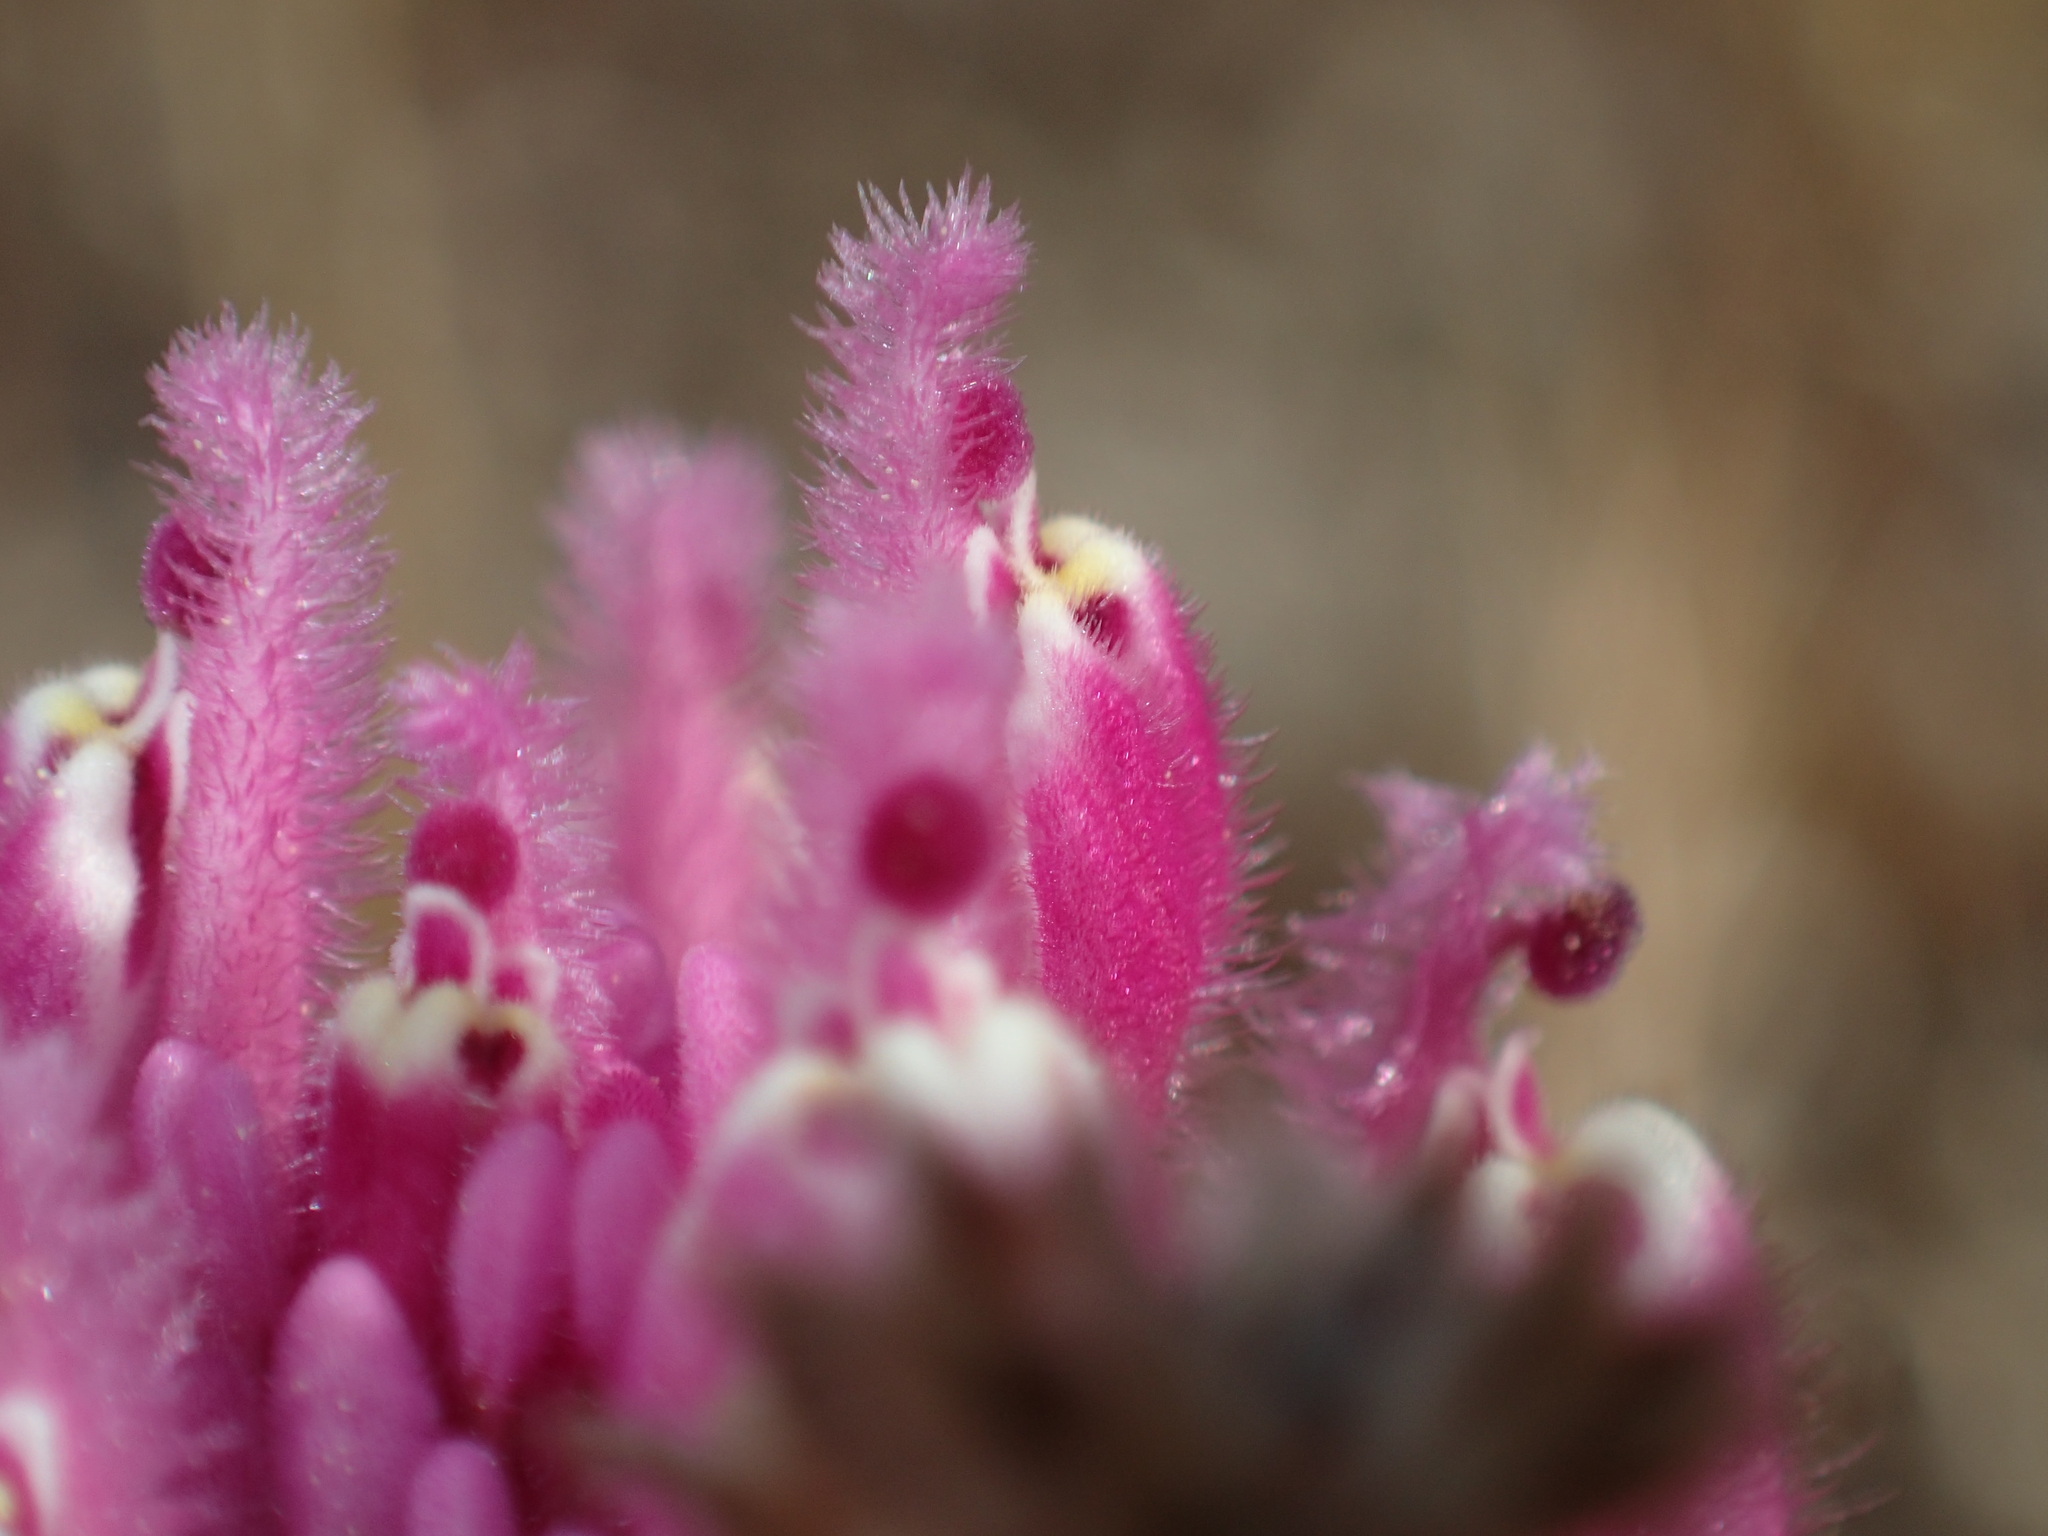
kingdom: Plantae
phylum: Tracheophyta
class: Magnoliopsida
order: Lamiales
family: Orobanchaceae
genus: Castilleja
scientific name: Castilleja exserta
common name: Purple owl-clover
